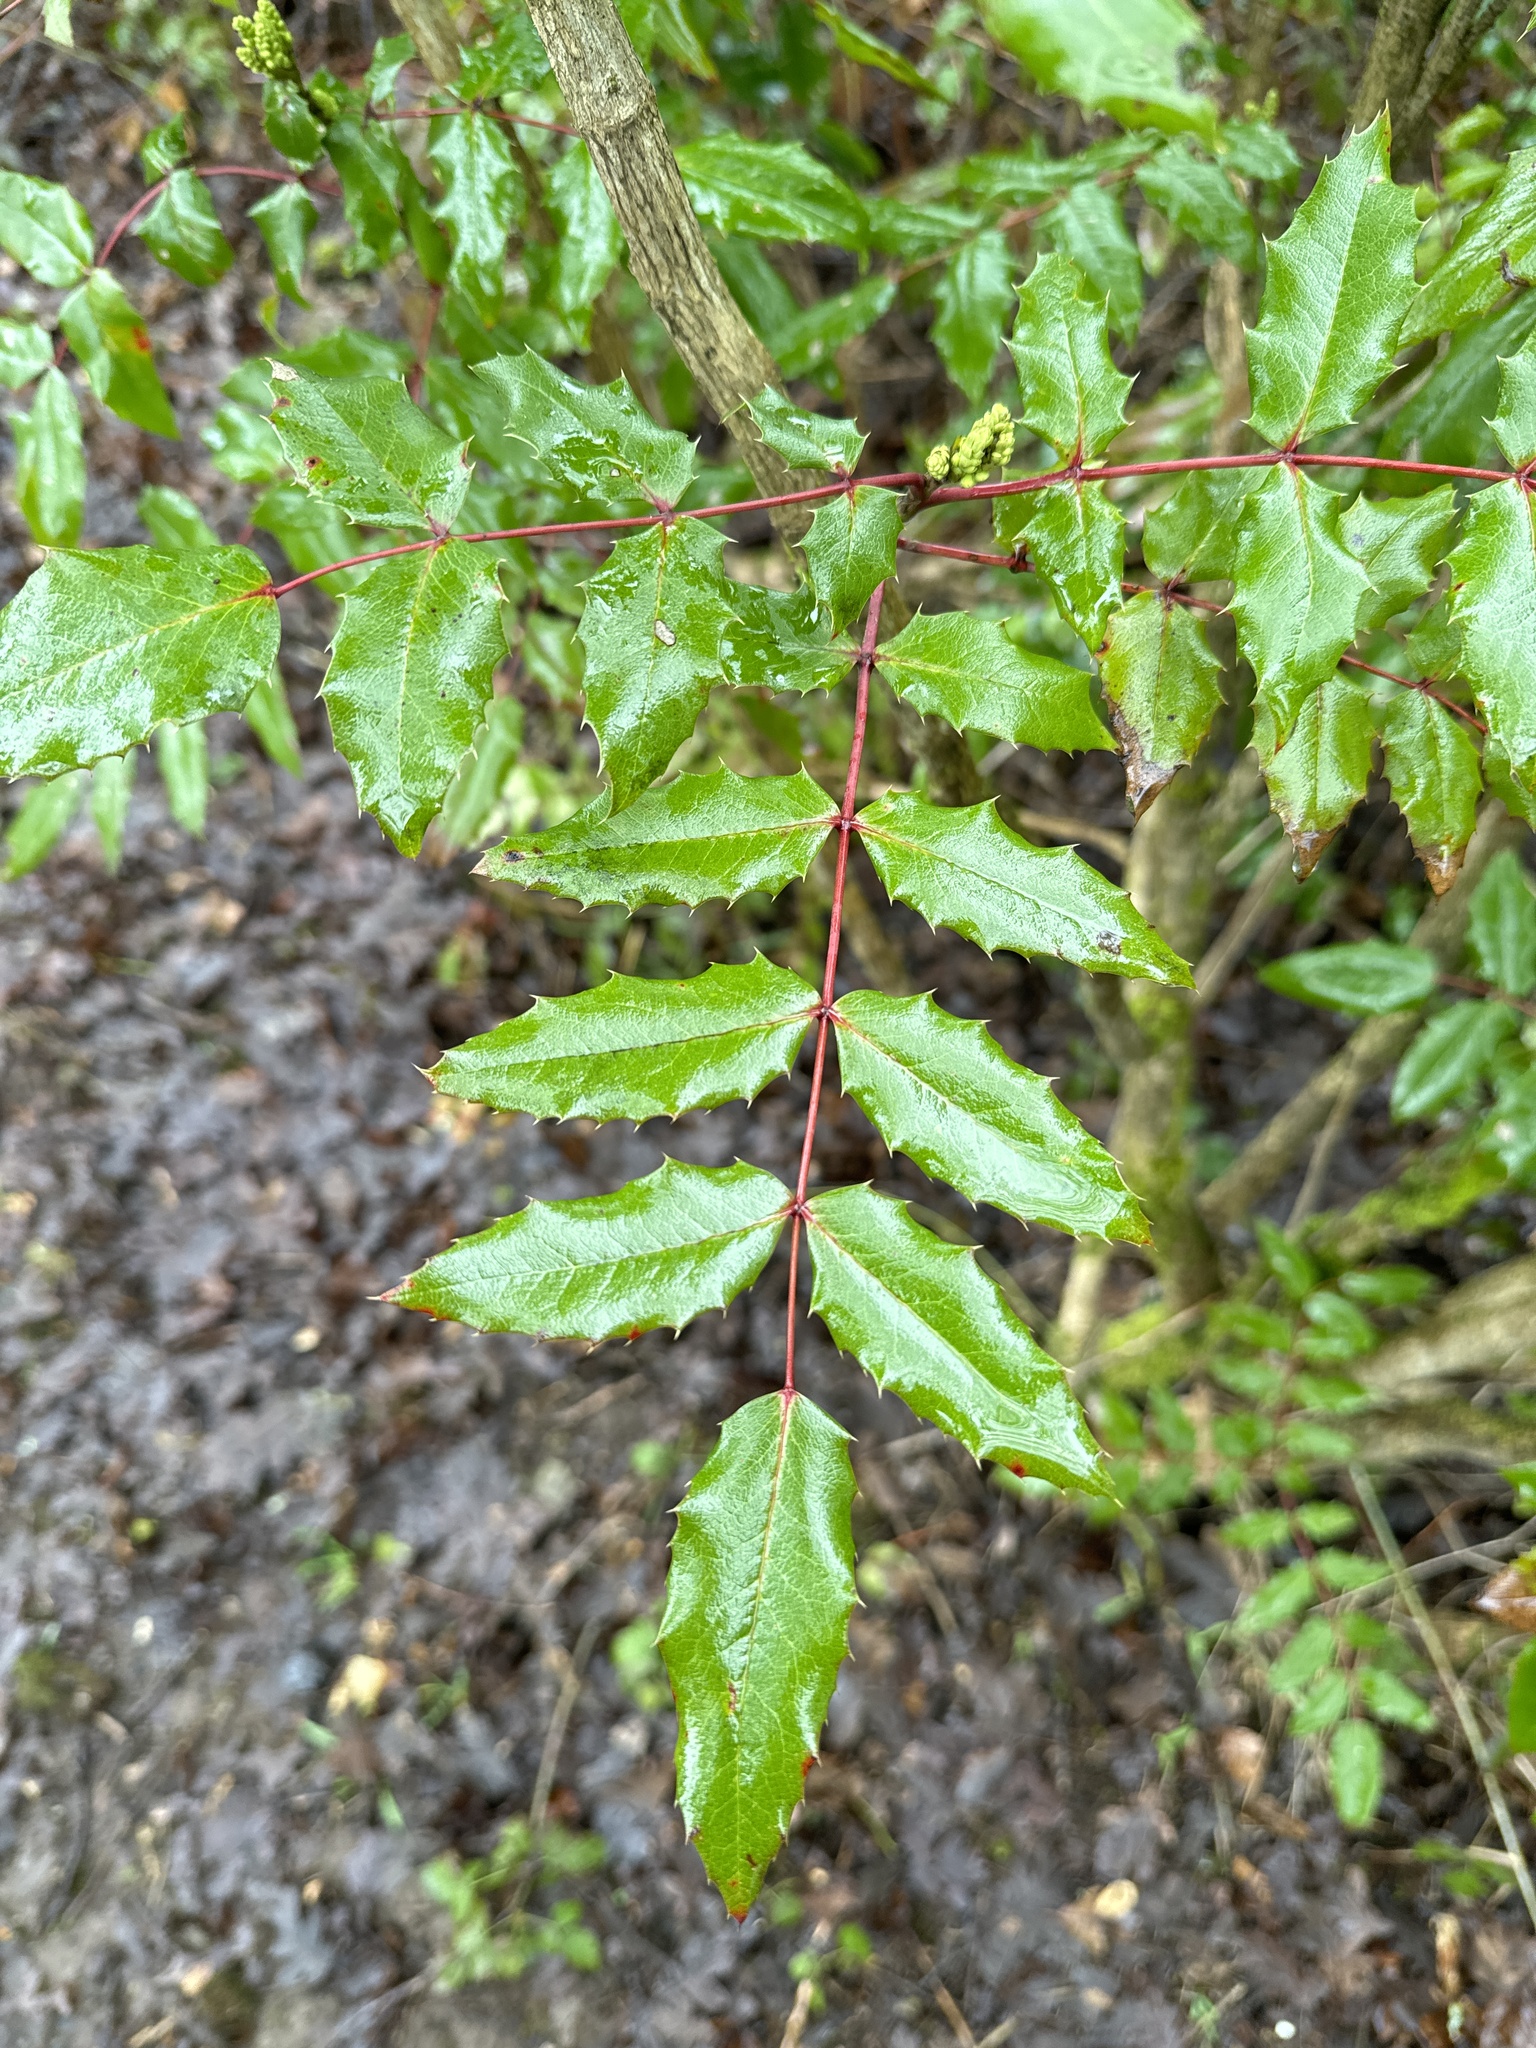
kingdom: Plantae
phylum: Tracheophyta
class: Magnoliopsida
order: Ranunculales
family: Berberidaceae
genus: Mahonia
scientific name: Mahonia aquifolium
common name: Oregon-grape
